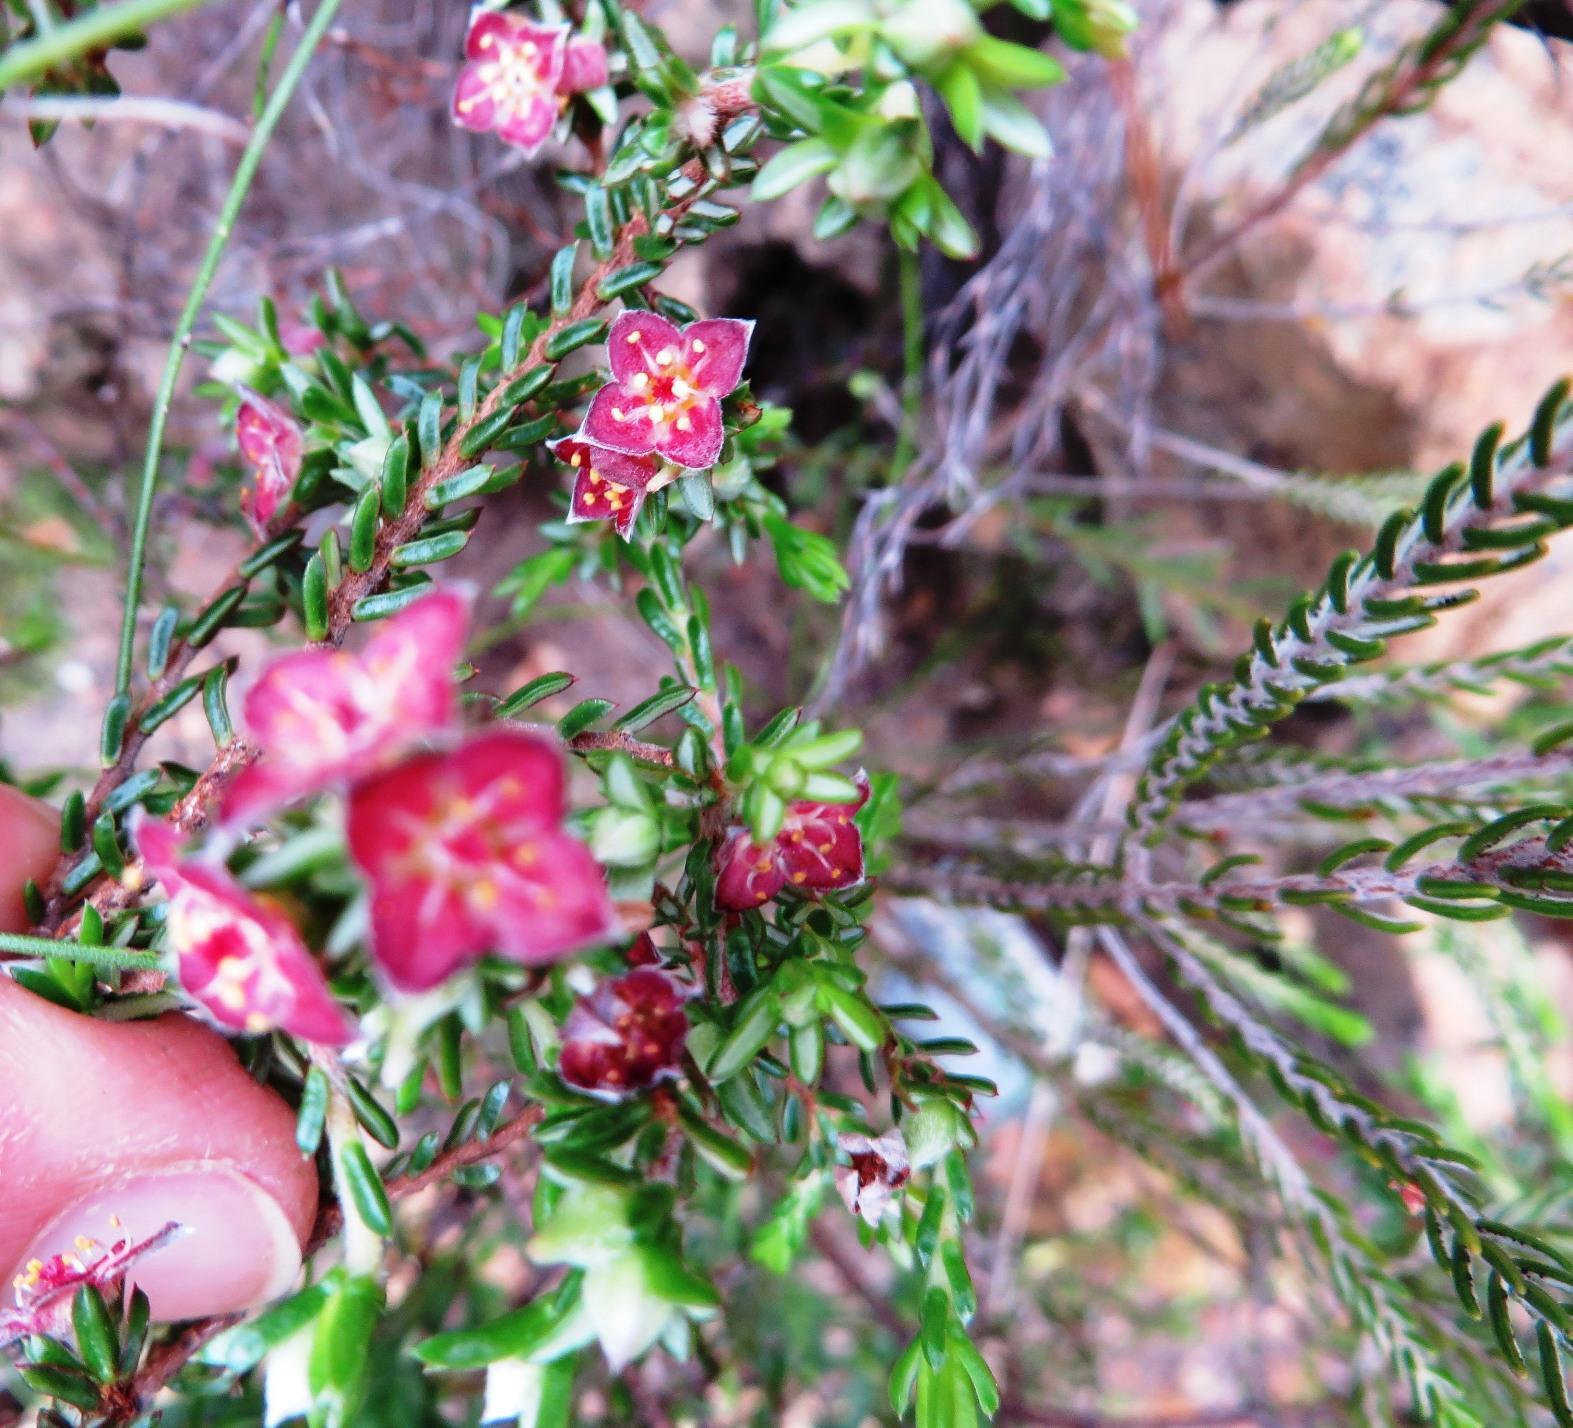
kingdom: Plantae
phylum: Tracheophyta
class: Magnoliopsida
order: Malvales
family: Thymelaeaceae
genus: Lachnaea
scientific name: Lachnaea pudens
